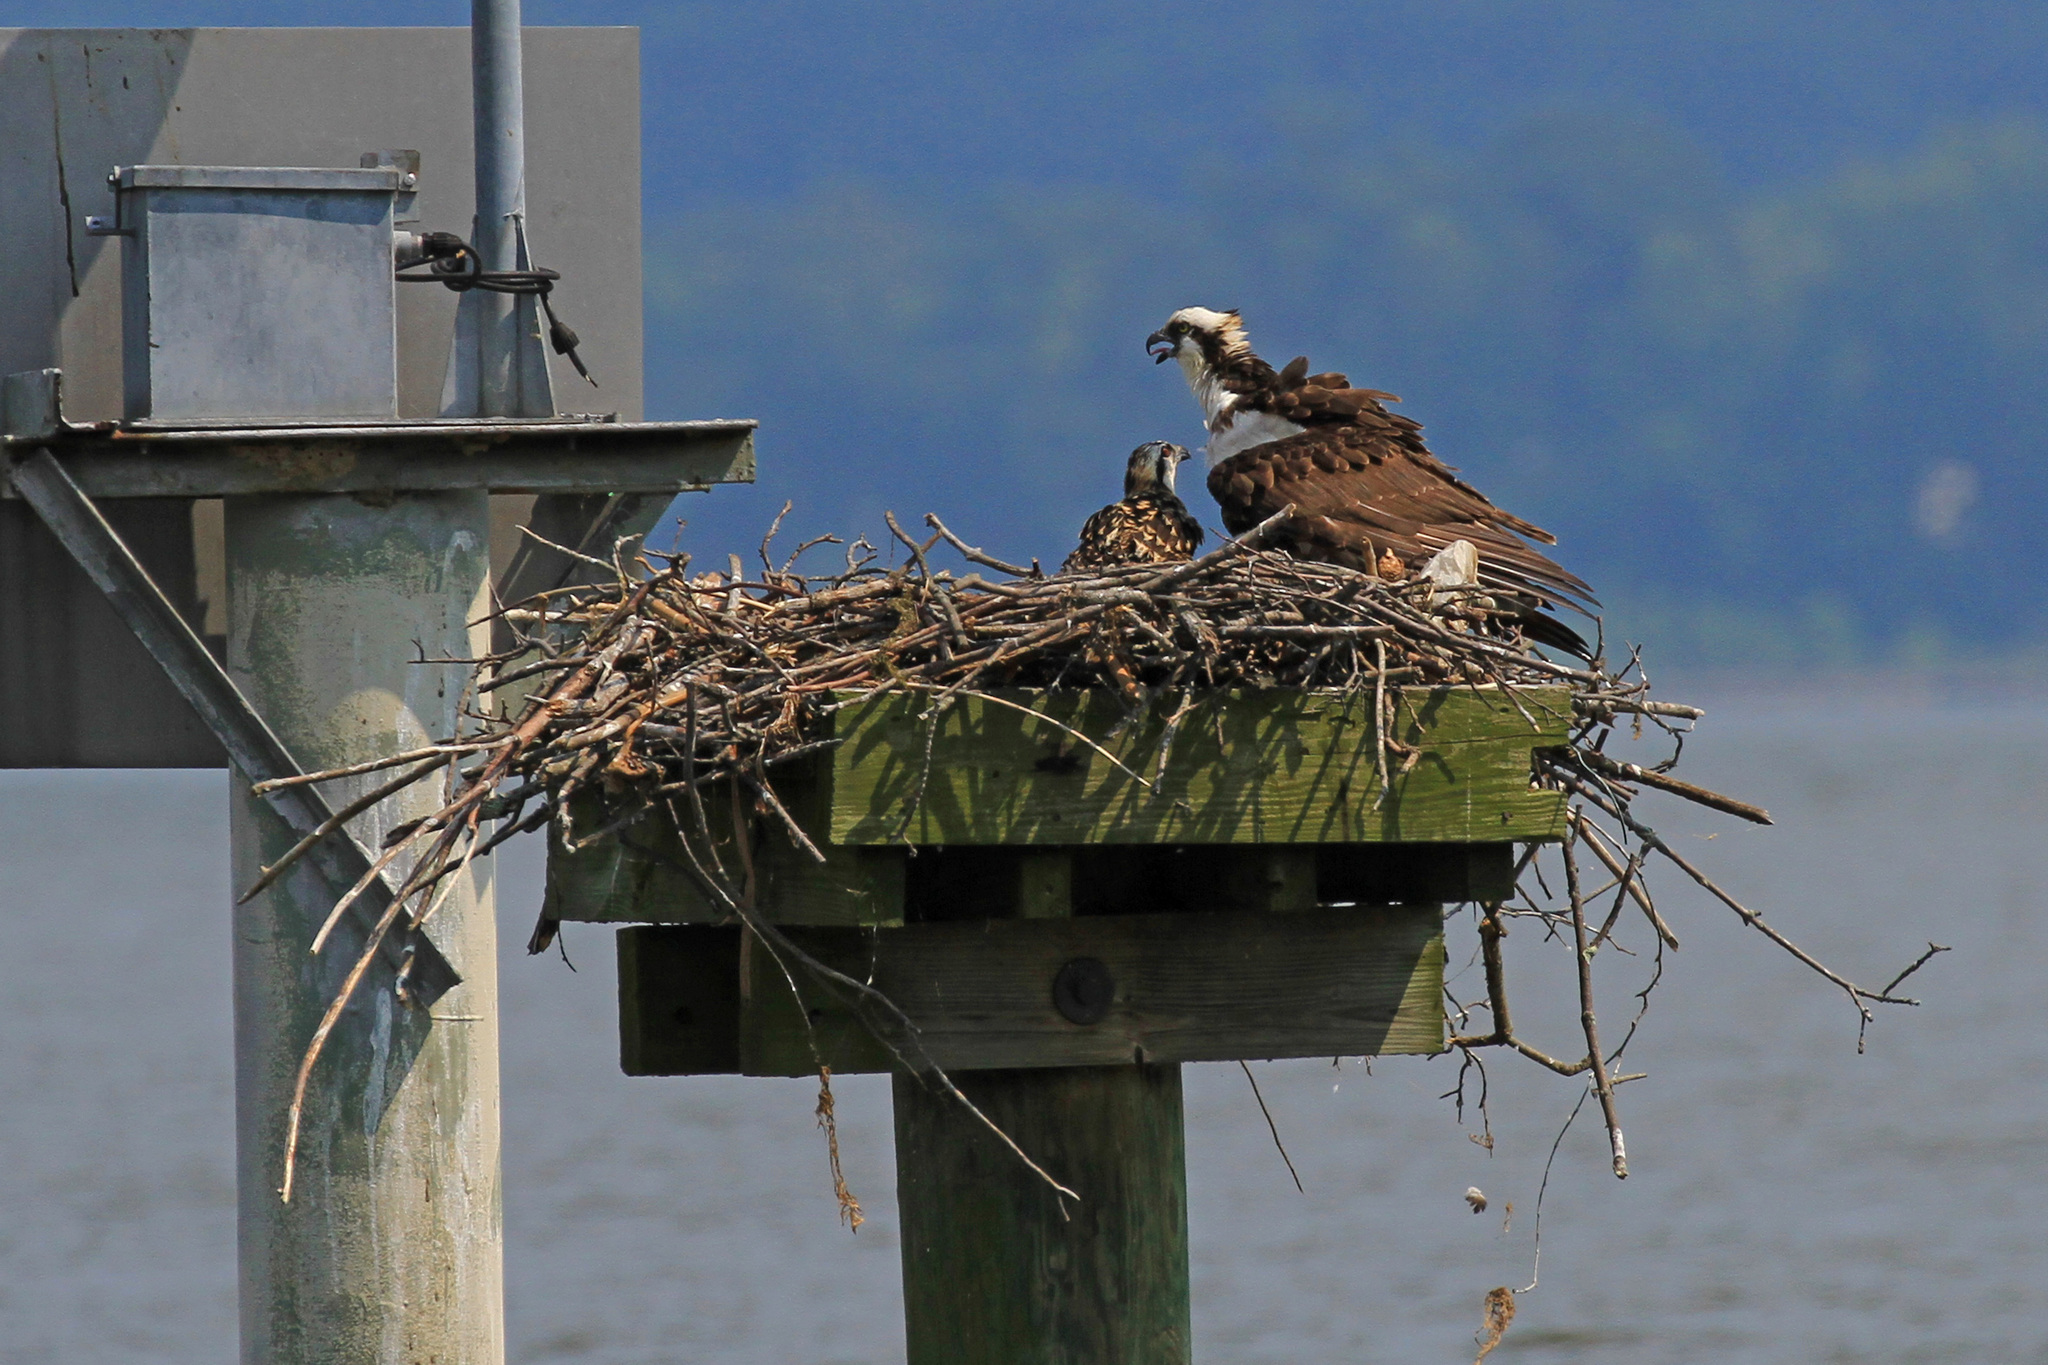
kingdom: Animalia
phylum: Chordata
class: Aves
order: Accipitriformes
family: Pandionidae
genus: Pandion
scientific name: Pandion haliaetus
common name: Osprey
